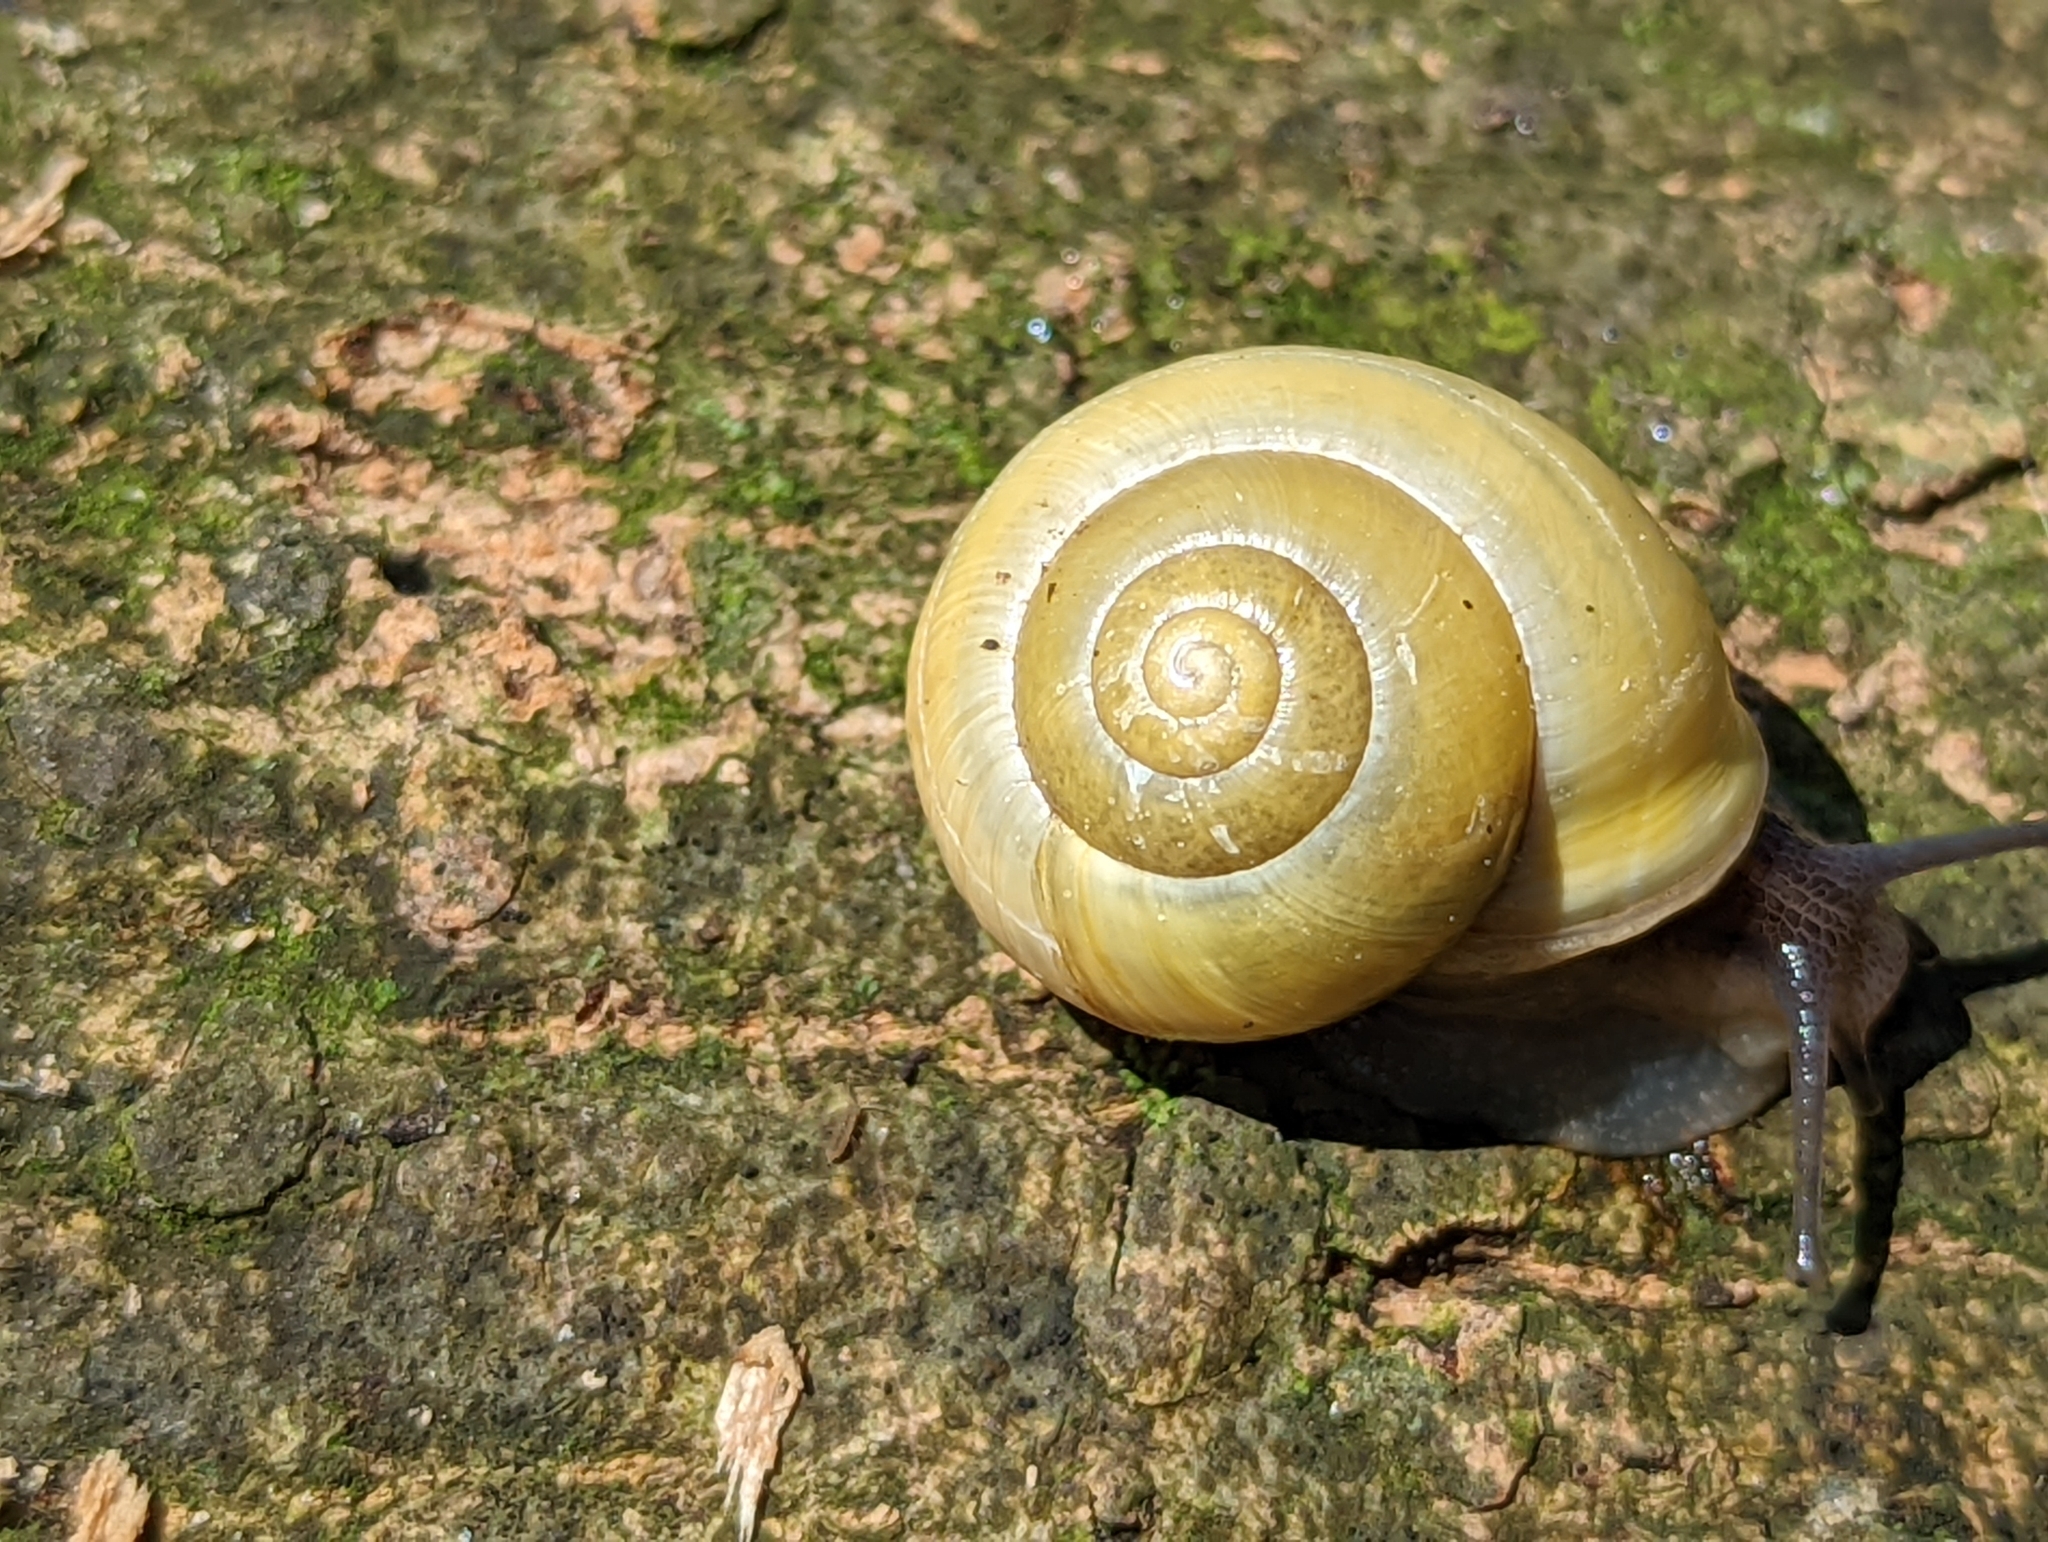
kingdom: Animalia
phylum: Mollusca
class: Gastropoda
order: Stylommatophora
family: Helicidae
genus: Cepaea
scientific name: Cepaea hortensis
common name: White-lip gardensnail
